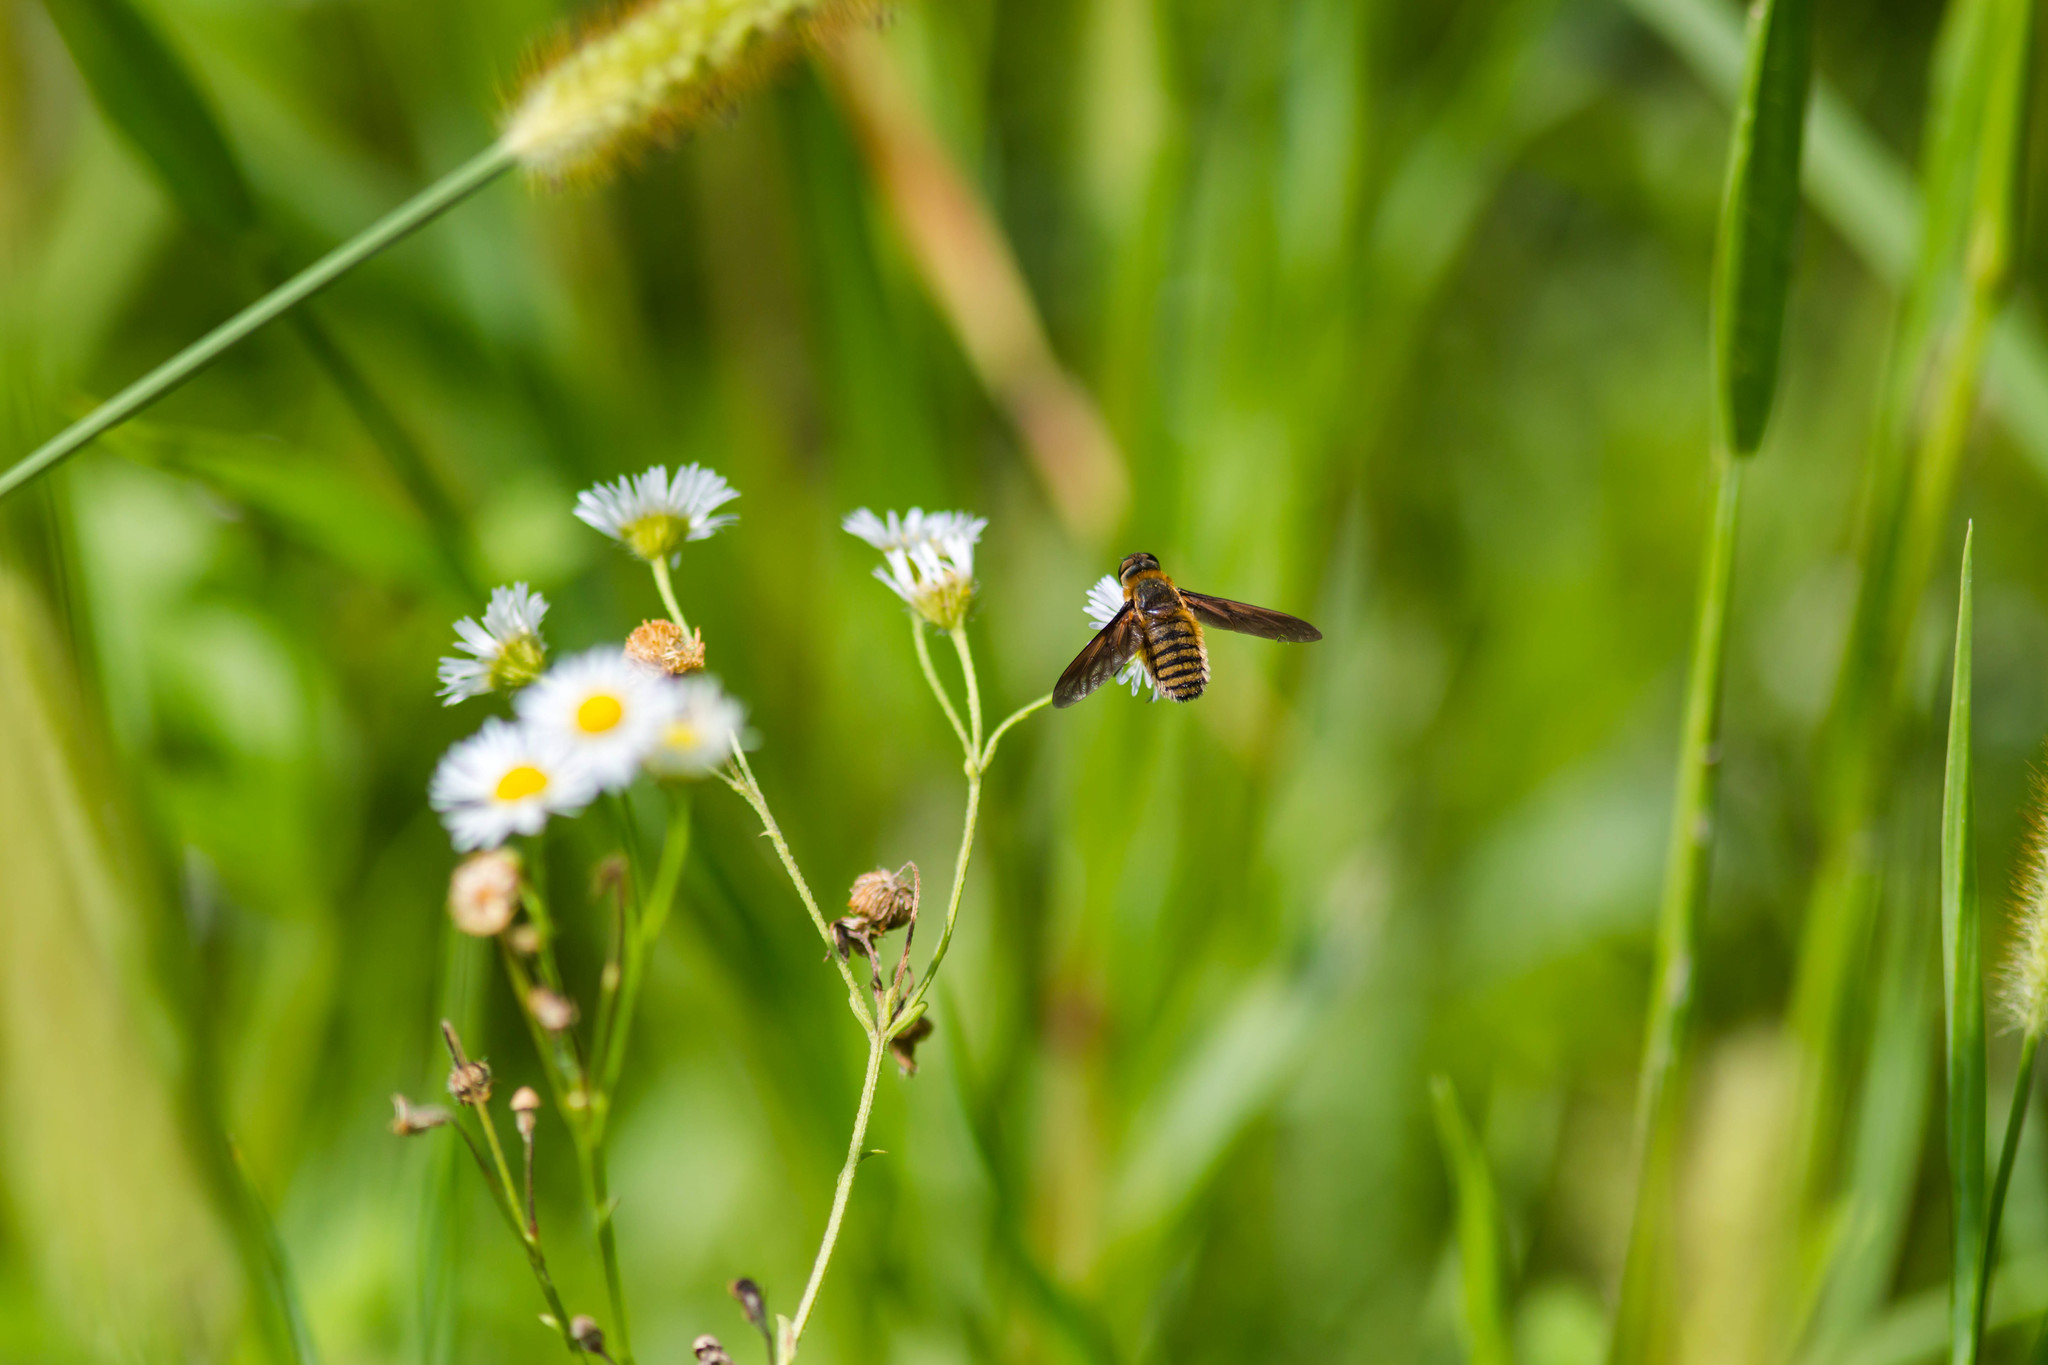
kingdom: Animalia
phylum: Arthropoda
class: Insecta
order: Diptera
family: Bombyliidae
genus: Poecilanthrax
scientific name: Poecilanthrax lucifer
